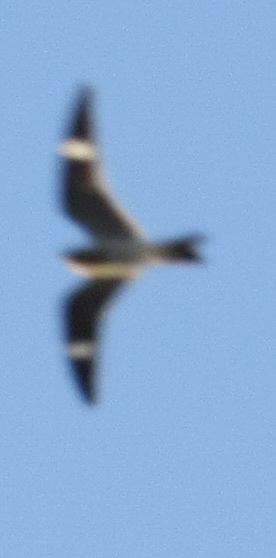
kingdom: Animalia
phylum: Chordata
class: Aves
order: Caprimulgiformes
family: Caprimulgidae
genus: Chordeiles
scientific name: Chordeiles minor
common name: Common nighthawk
